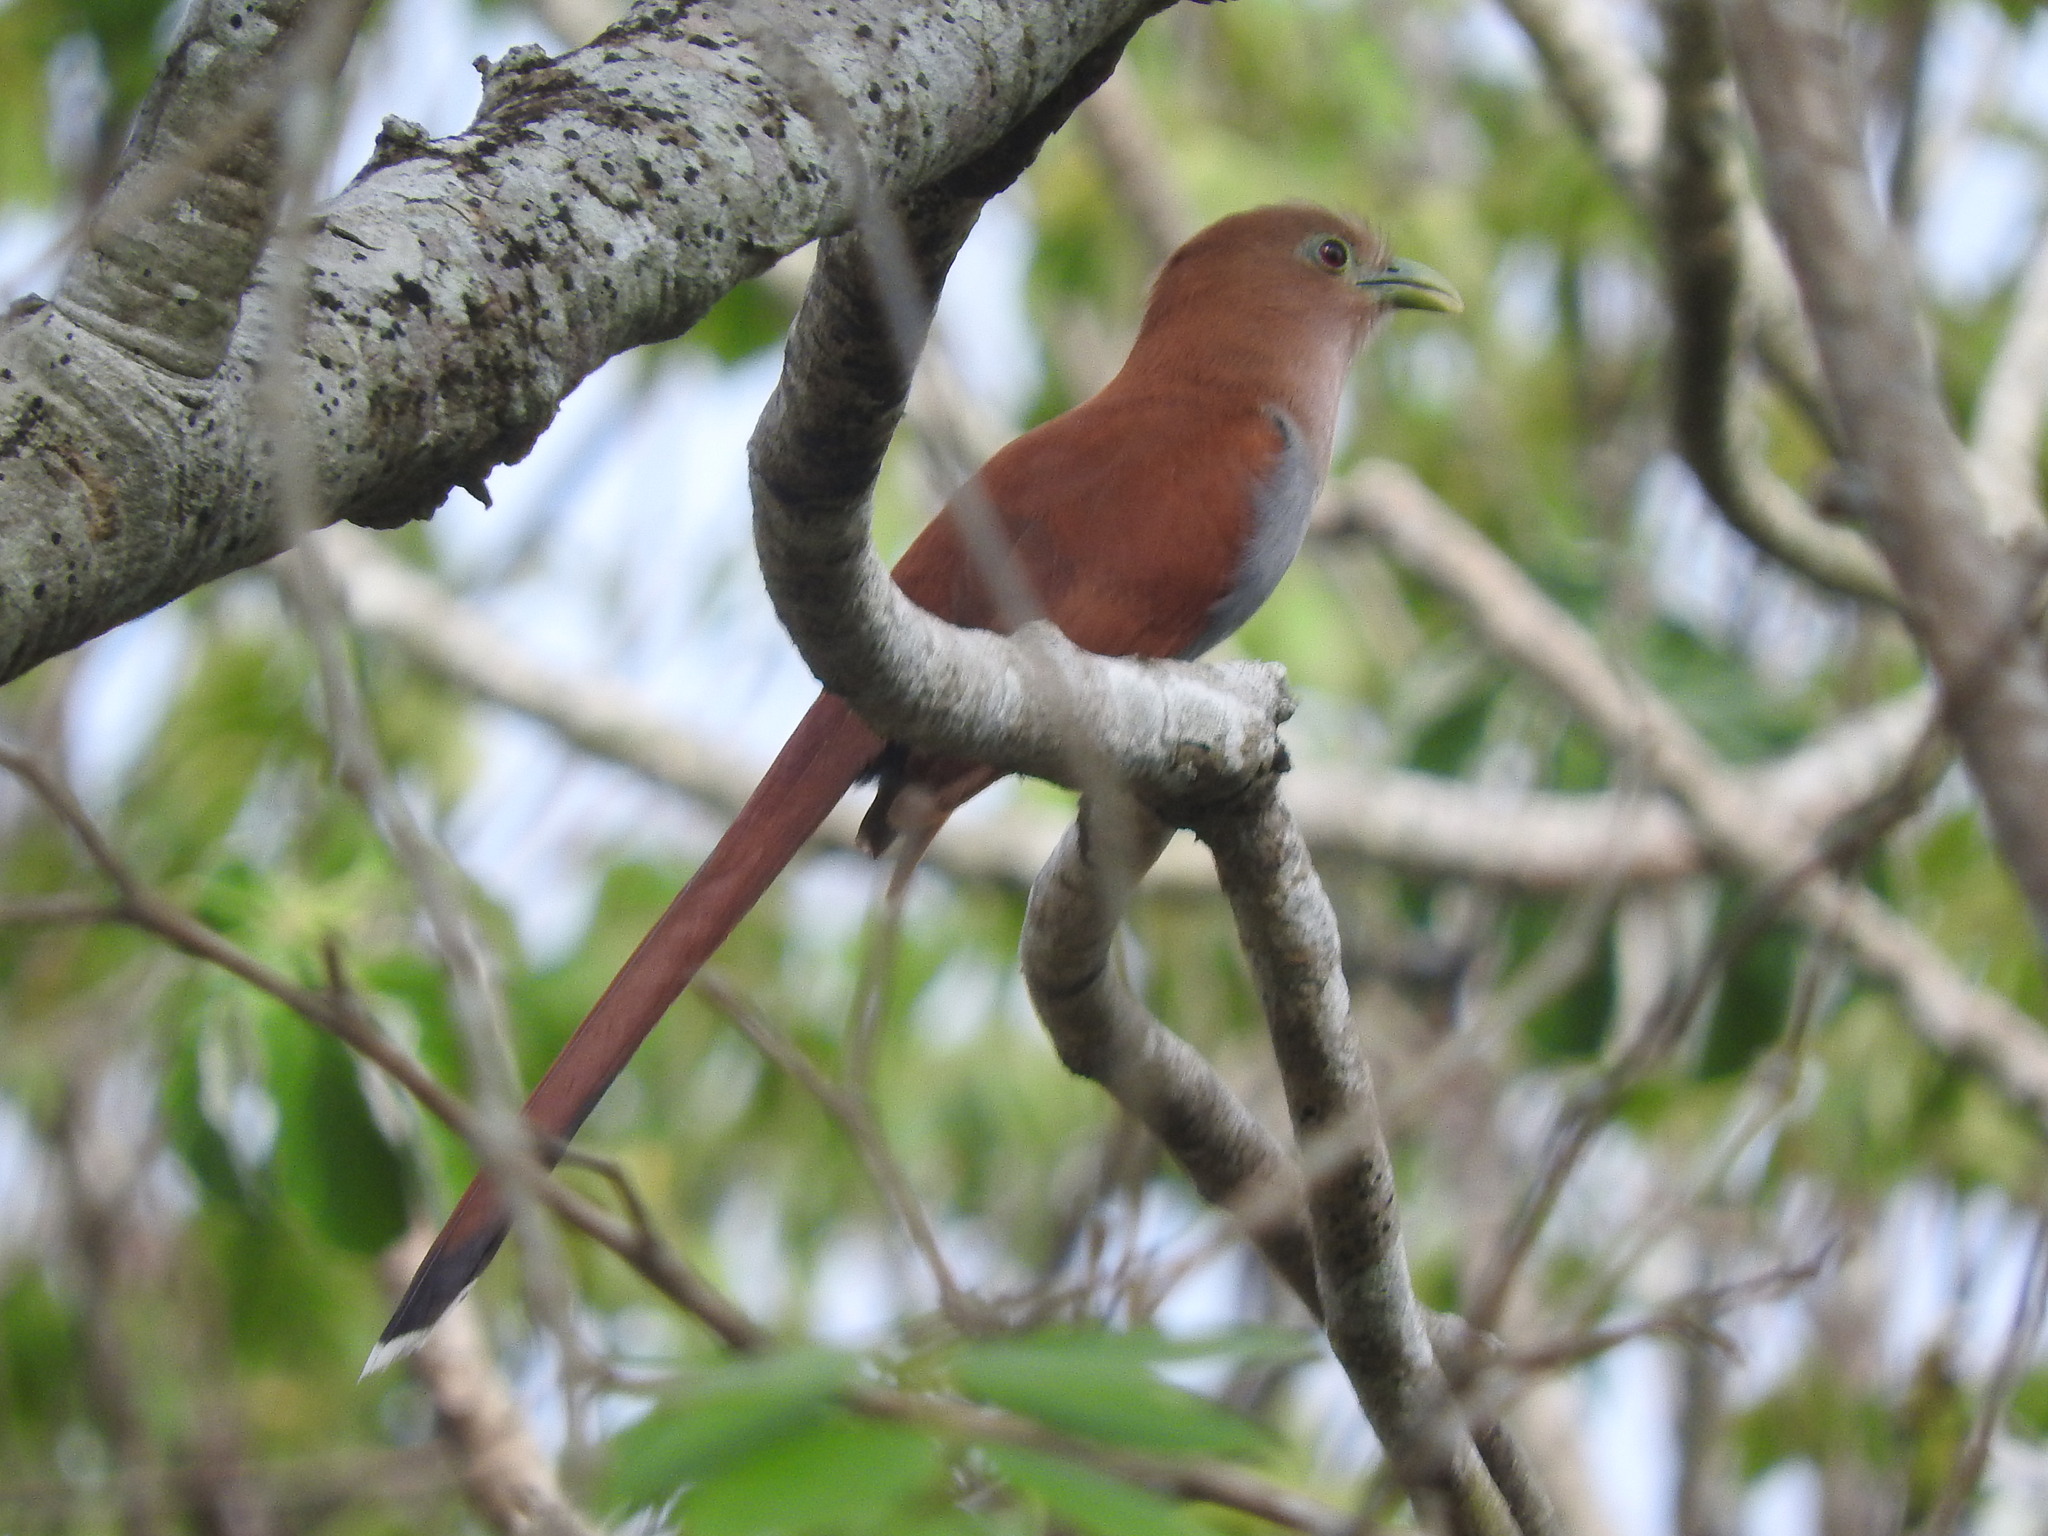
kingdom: Animalia
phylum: Chordata
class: Aves
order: Cuculiformes
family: Cuculidae
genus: Piaya
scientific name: Piaya cayana
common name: Squirrel cuckoo
